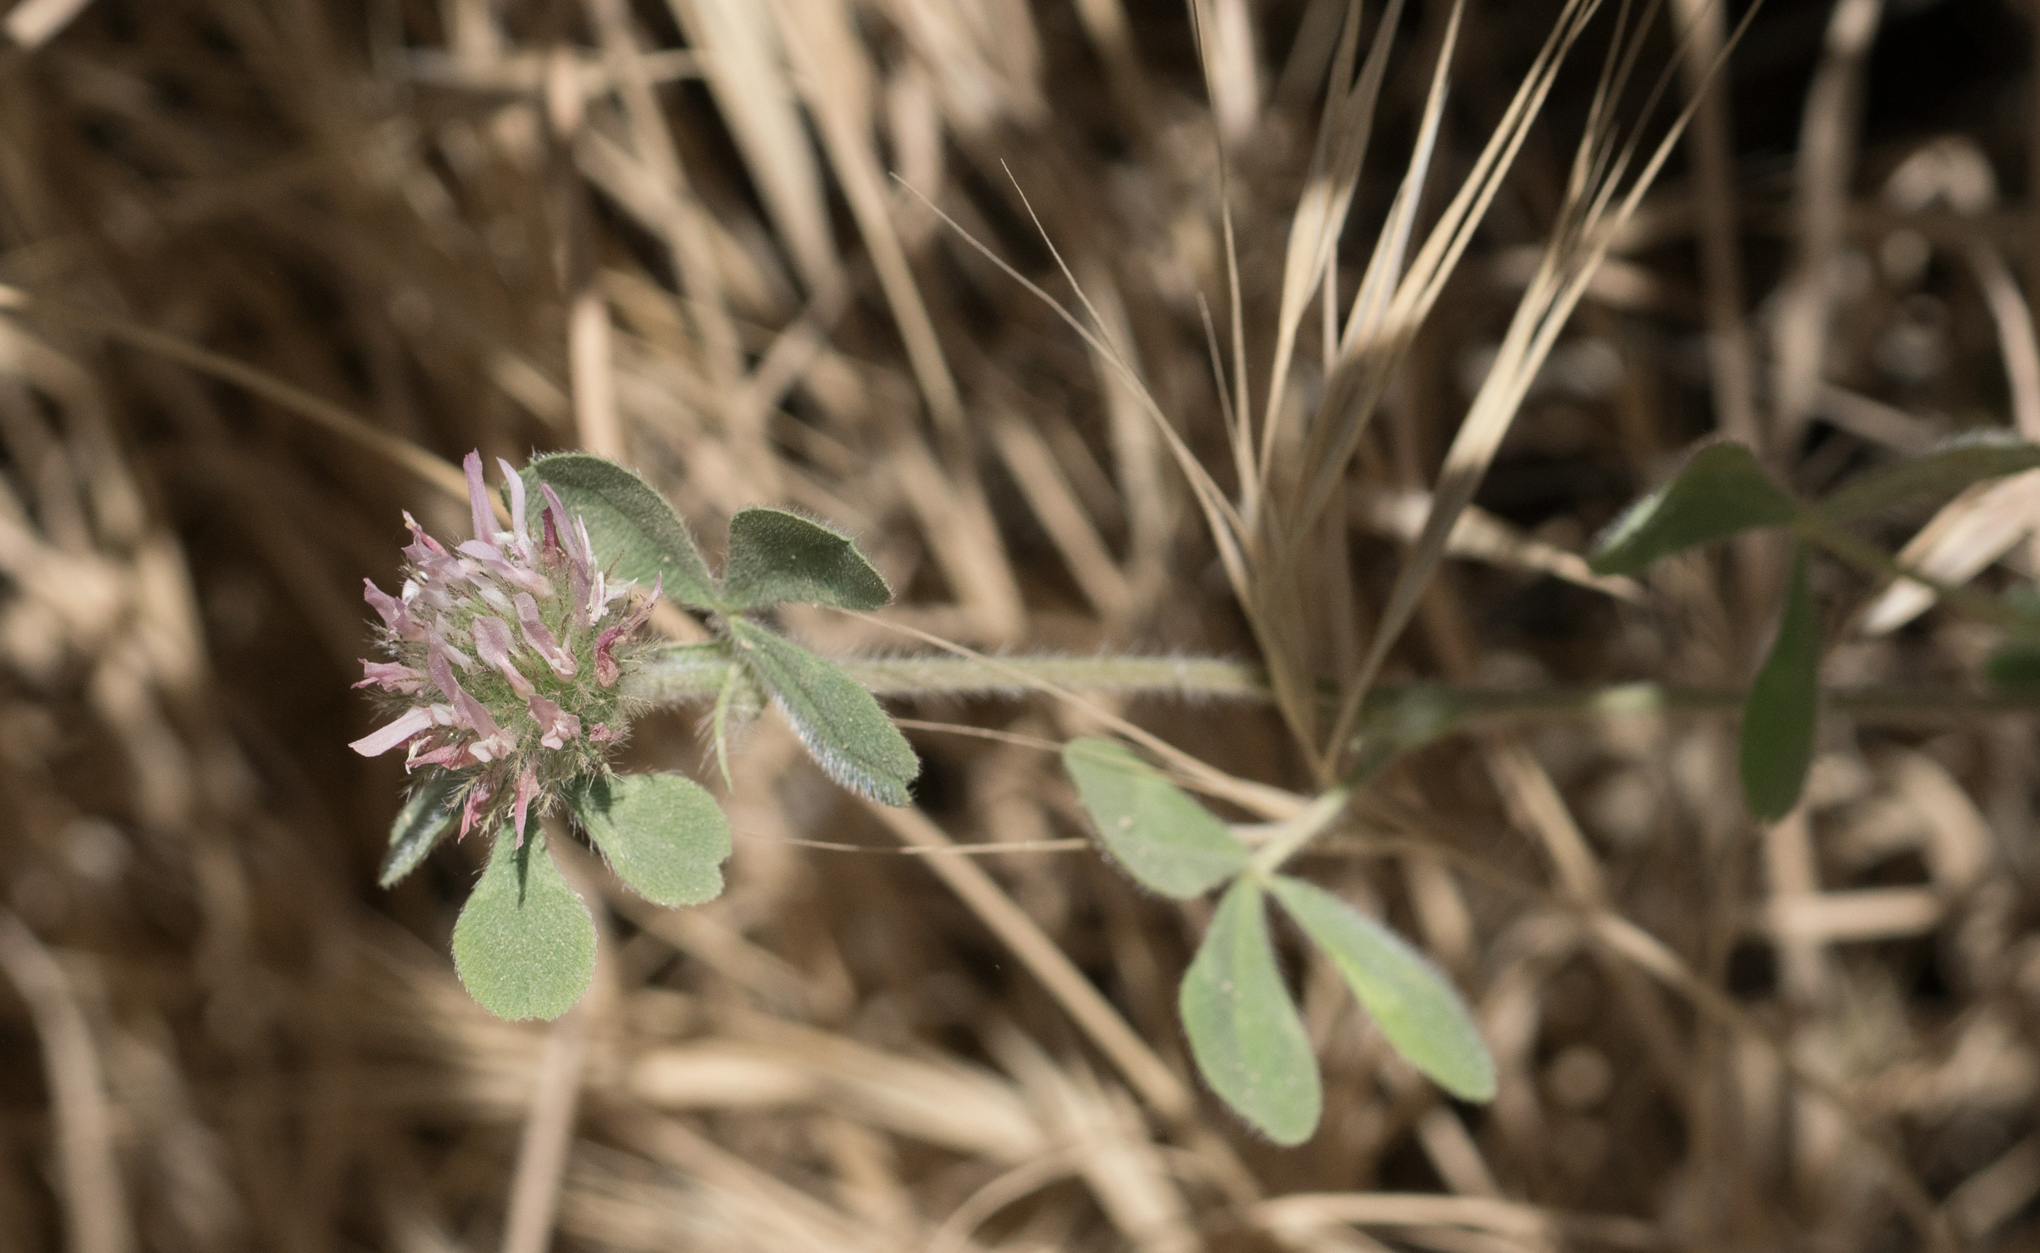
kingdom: Plantae
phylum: Tracheophyta
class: Magnoliopsida
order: Fabales
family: Fabaceae
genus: Trifolium
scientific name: Trifolium hirtum
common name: Rose clover
